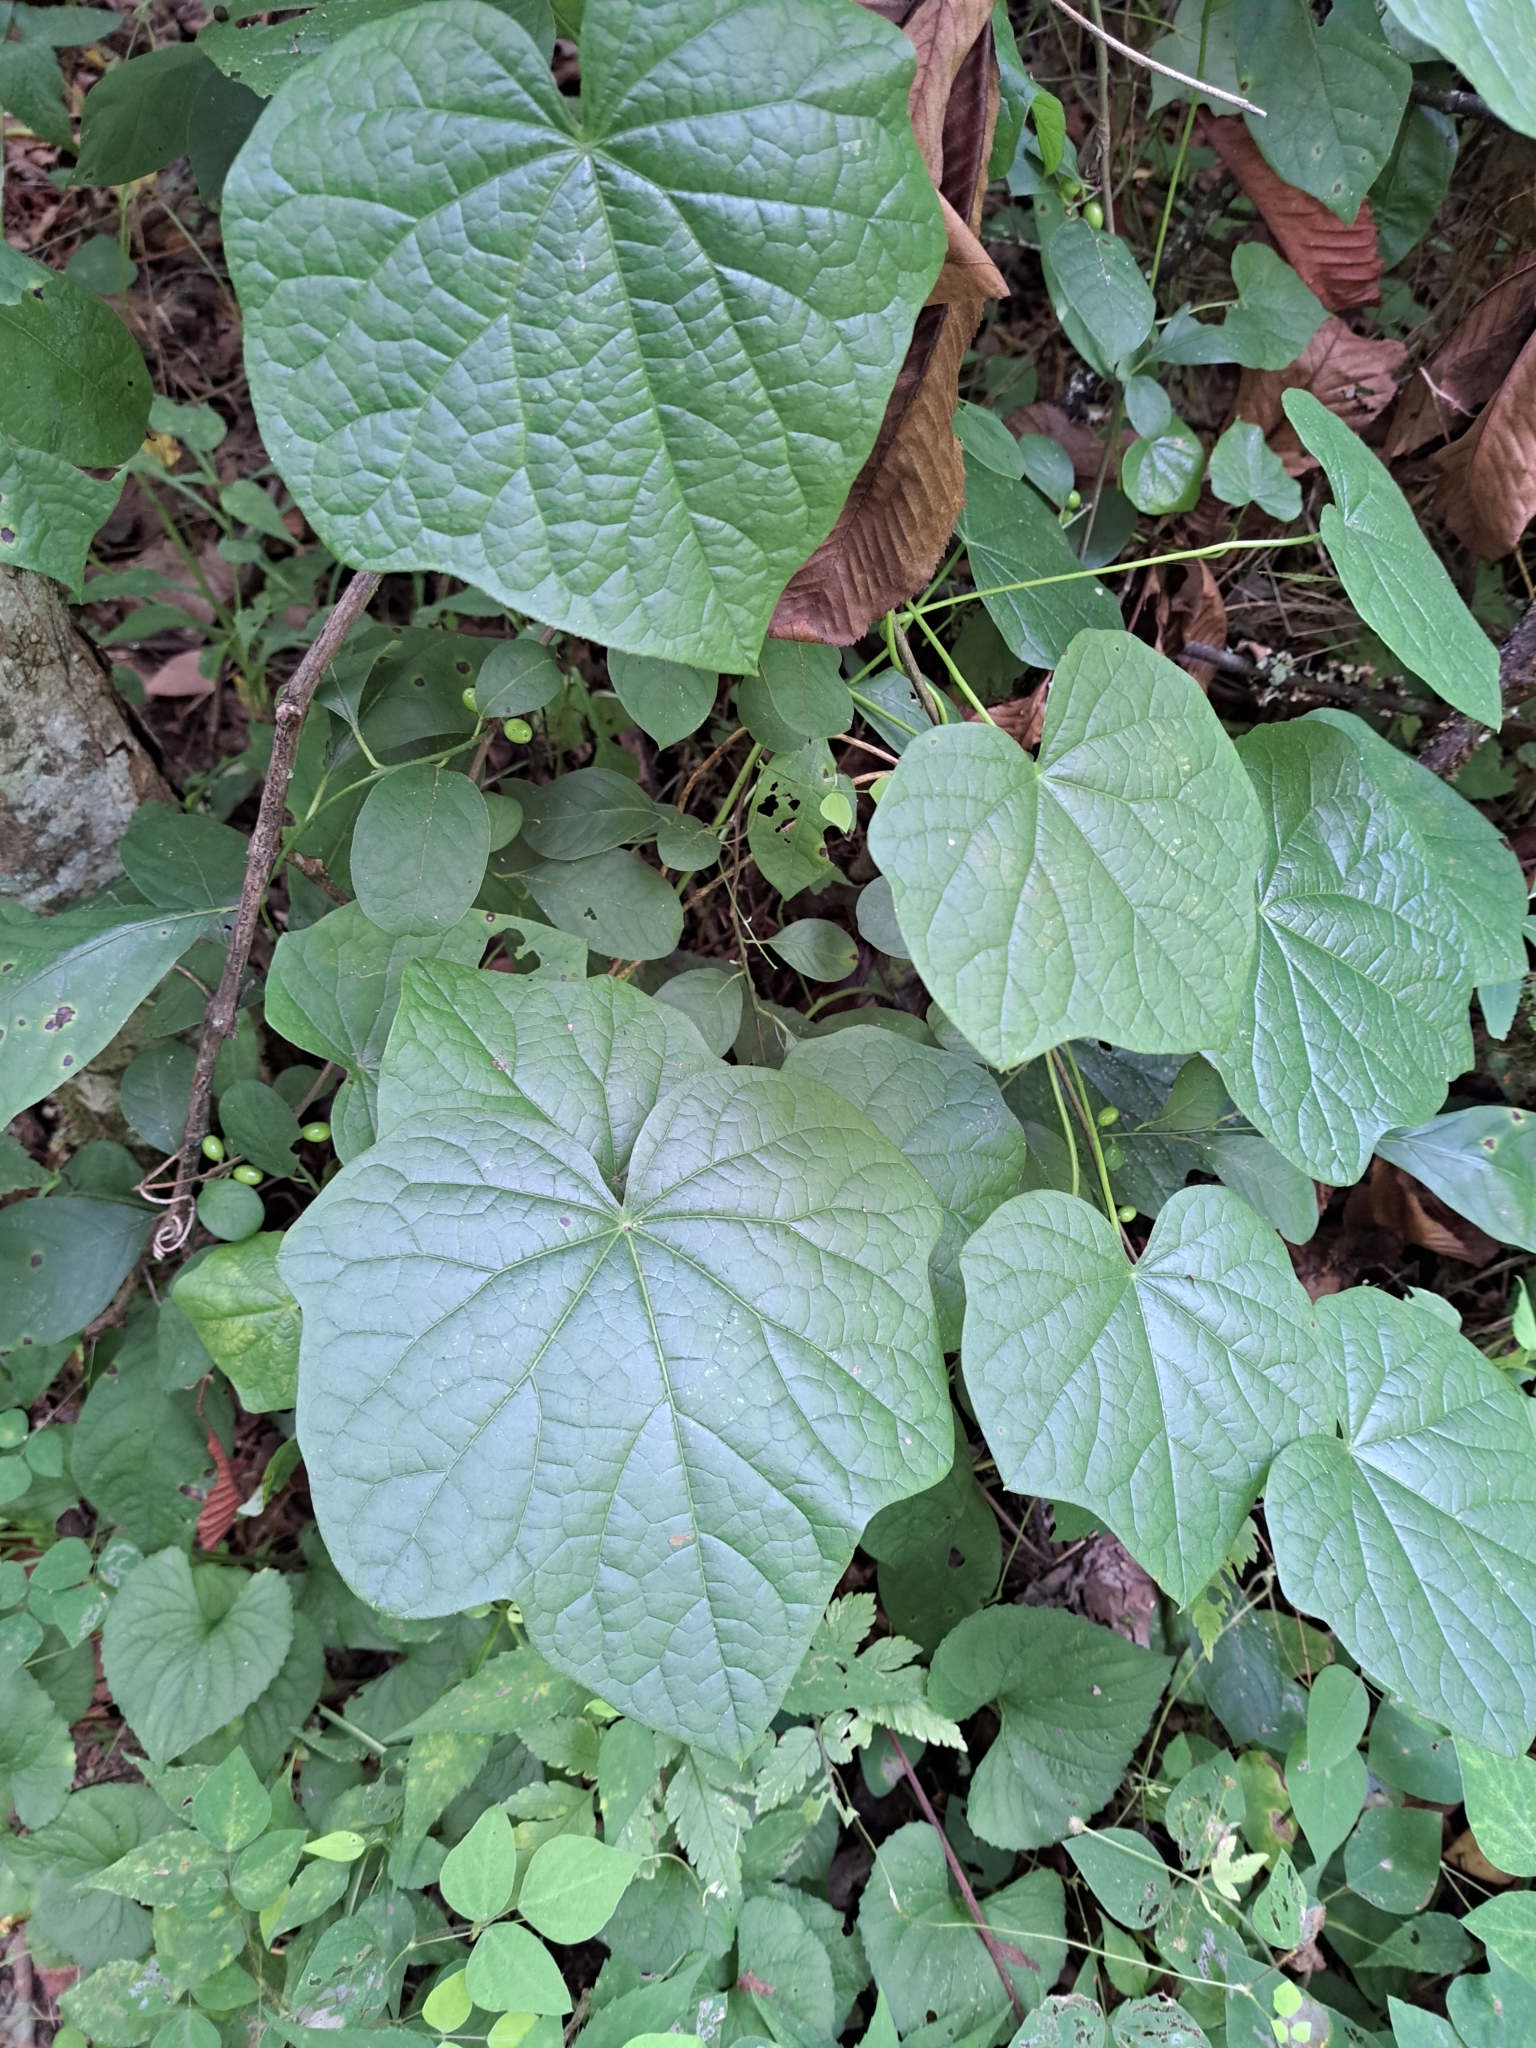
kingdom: Plantae
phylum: Tracheophyta
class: Magnoliopsida
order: Ranunculales
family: Menispermaceae
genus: Menispermum
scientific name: Menispermum canadense
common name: Moonseed
